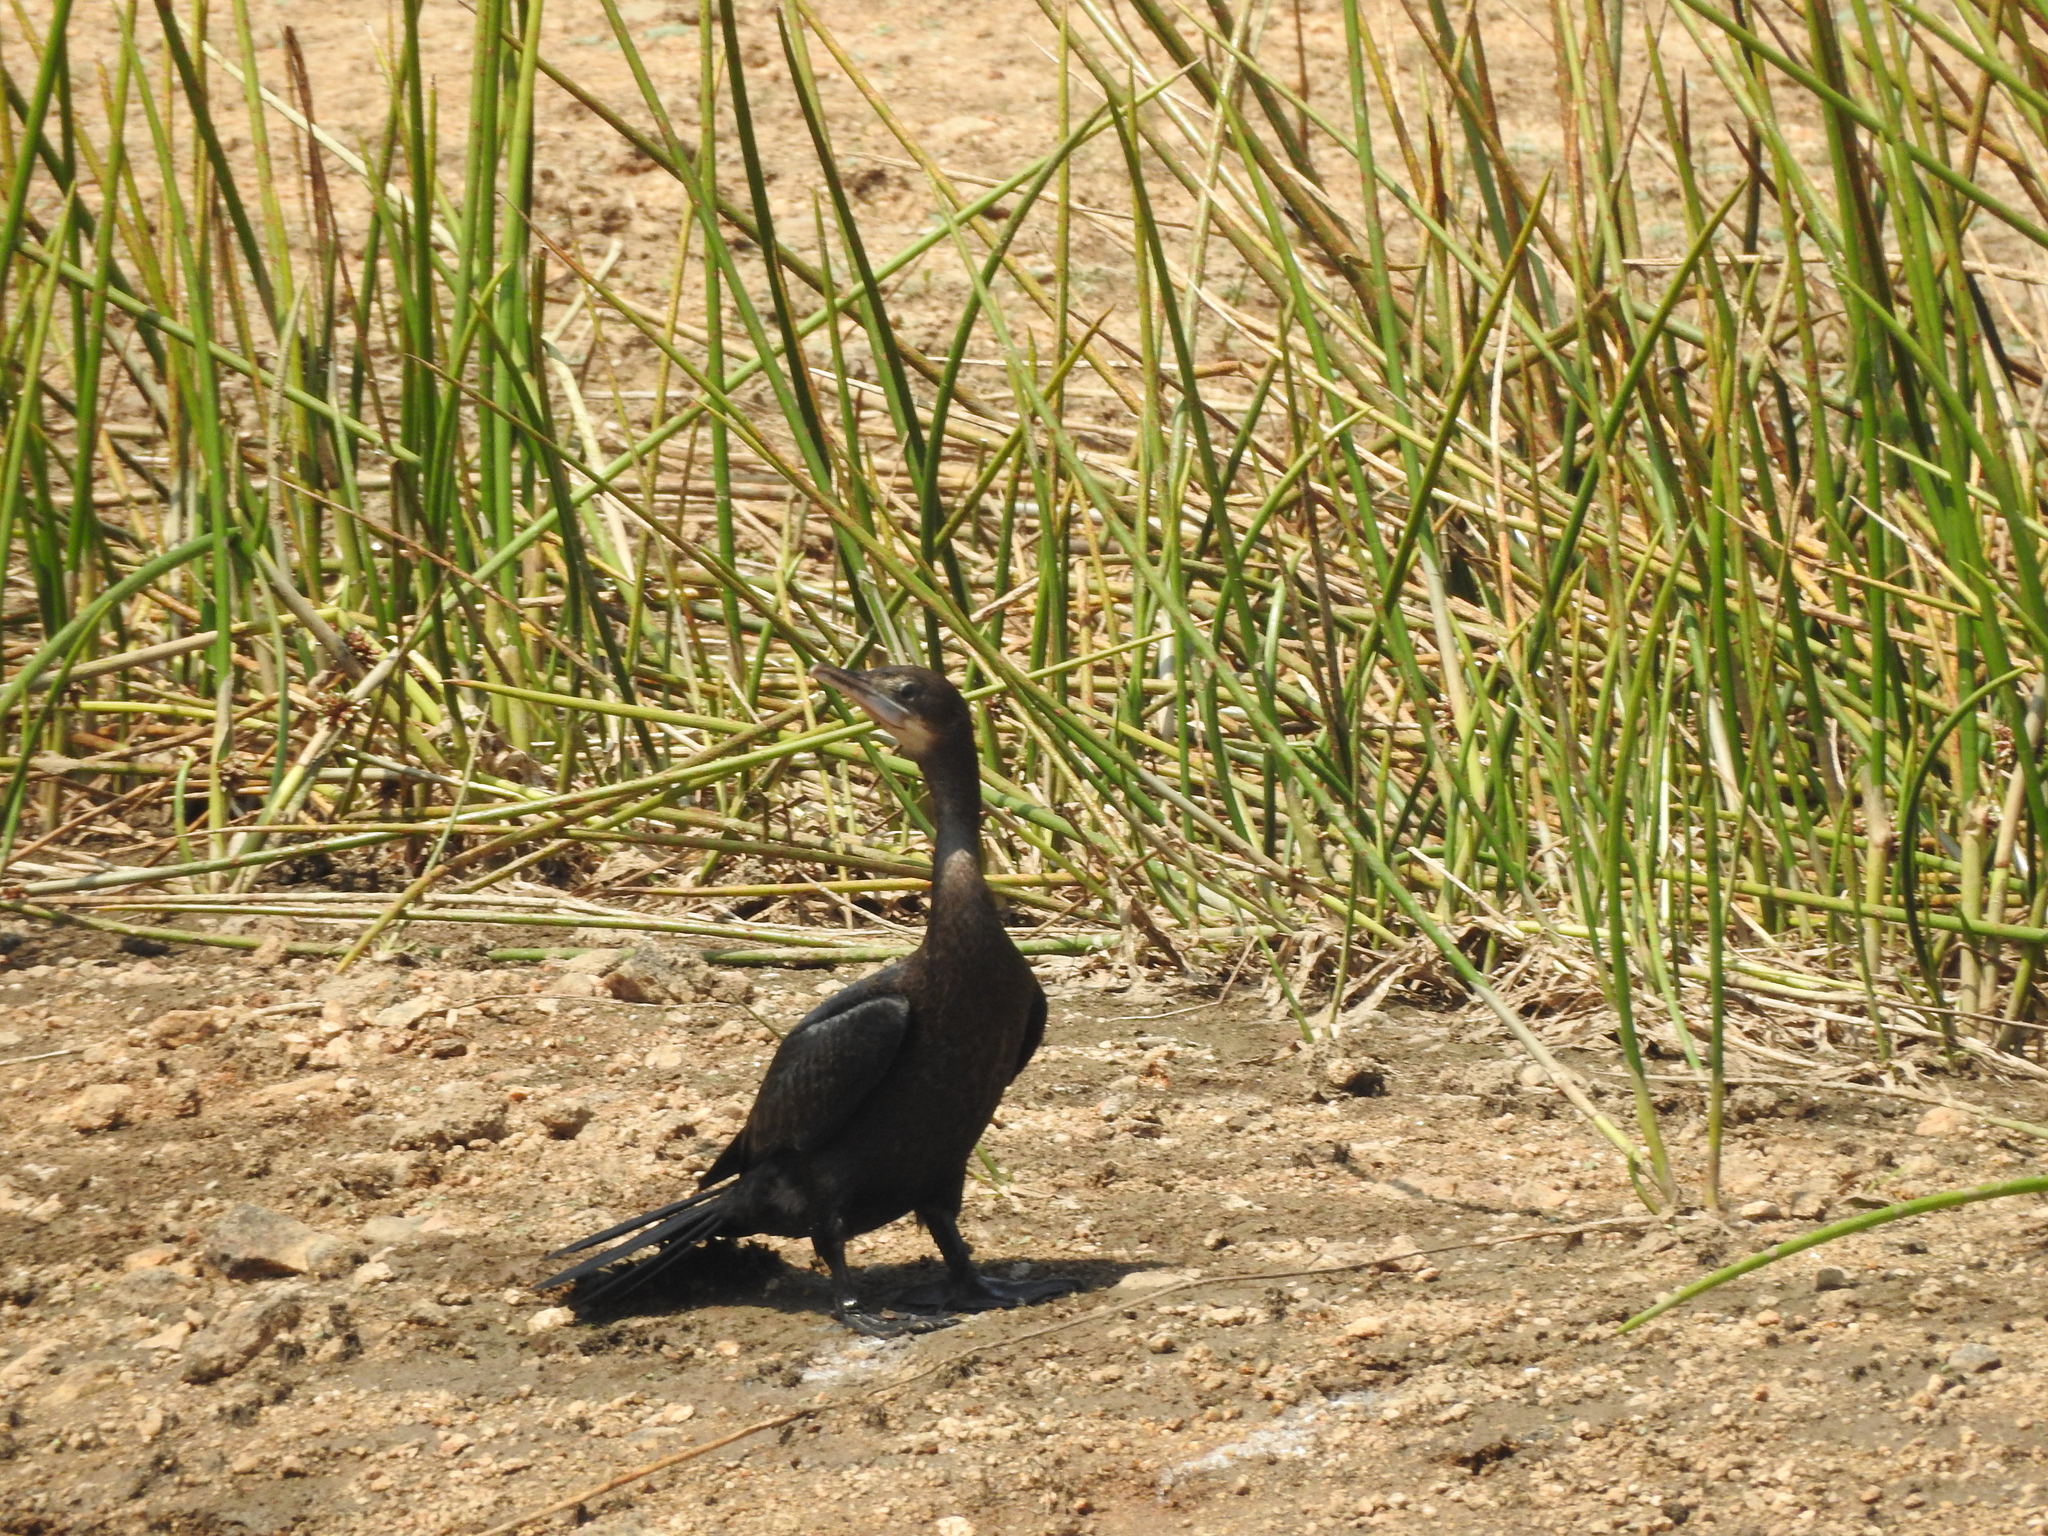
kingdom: Animalia
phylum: Chordata
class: Aves
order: Suliformes
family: Phalacrocoracidae
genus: Microcarbo
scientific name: Microcarbo niger
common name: Little cormorant
